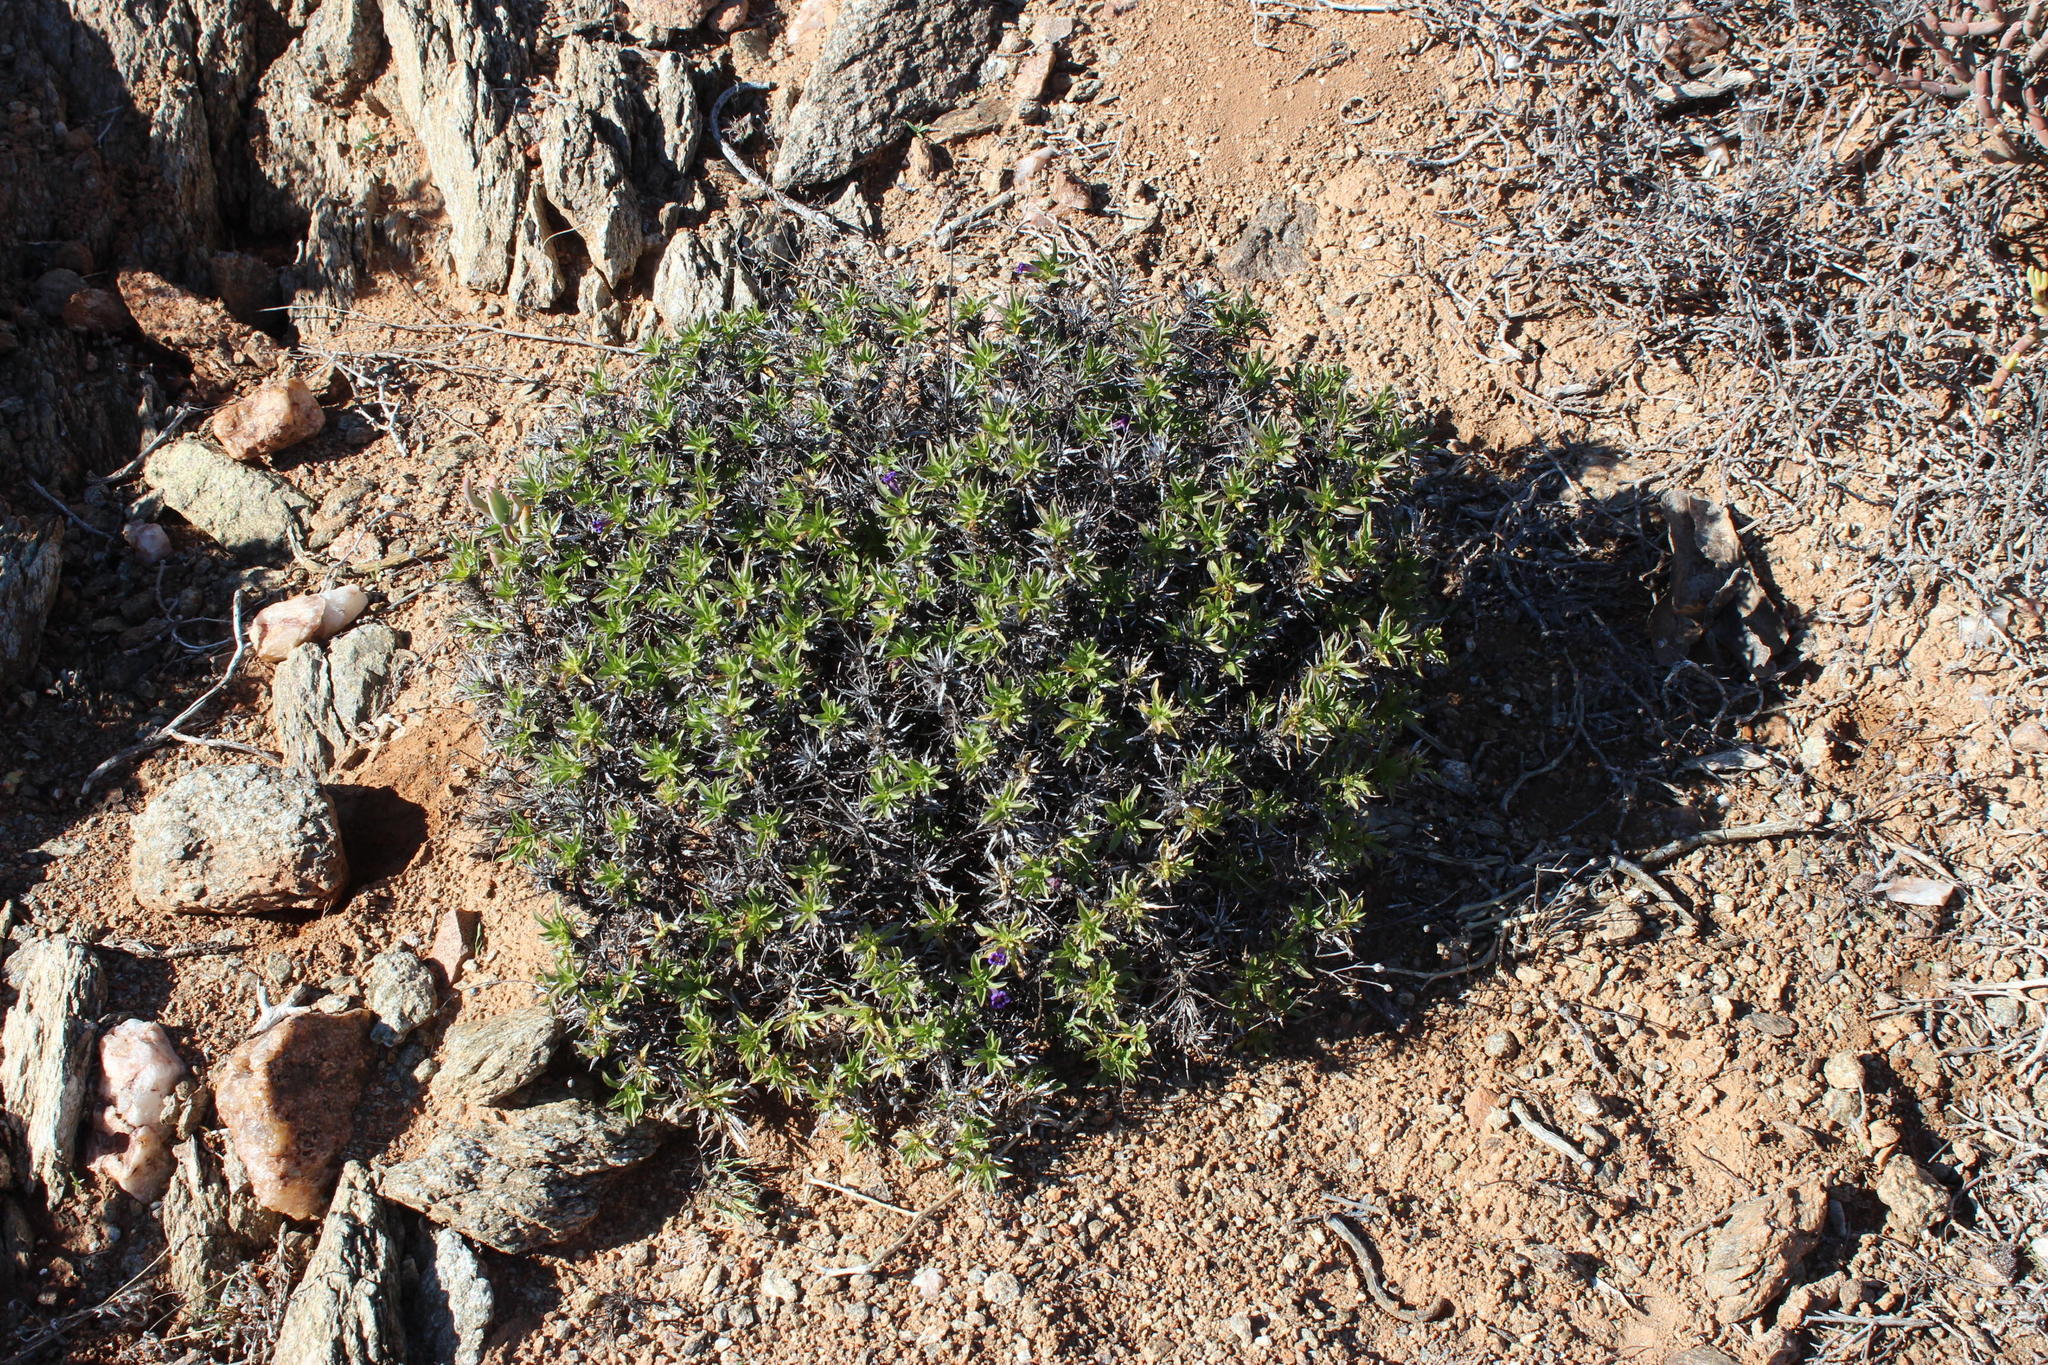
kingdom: Plantae
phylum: Tracheophyta
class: Magnoliopsida
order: Lamiales
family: Scrophulariaceae
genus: Aptosimum
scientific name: Aptosimum viscosum
